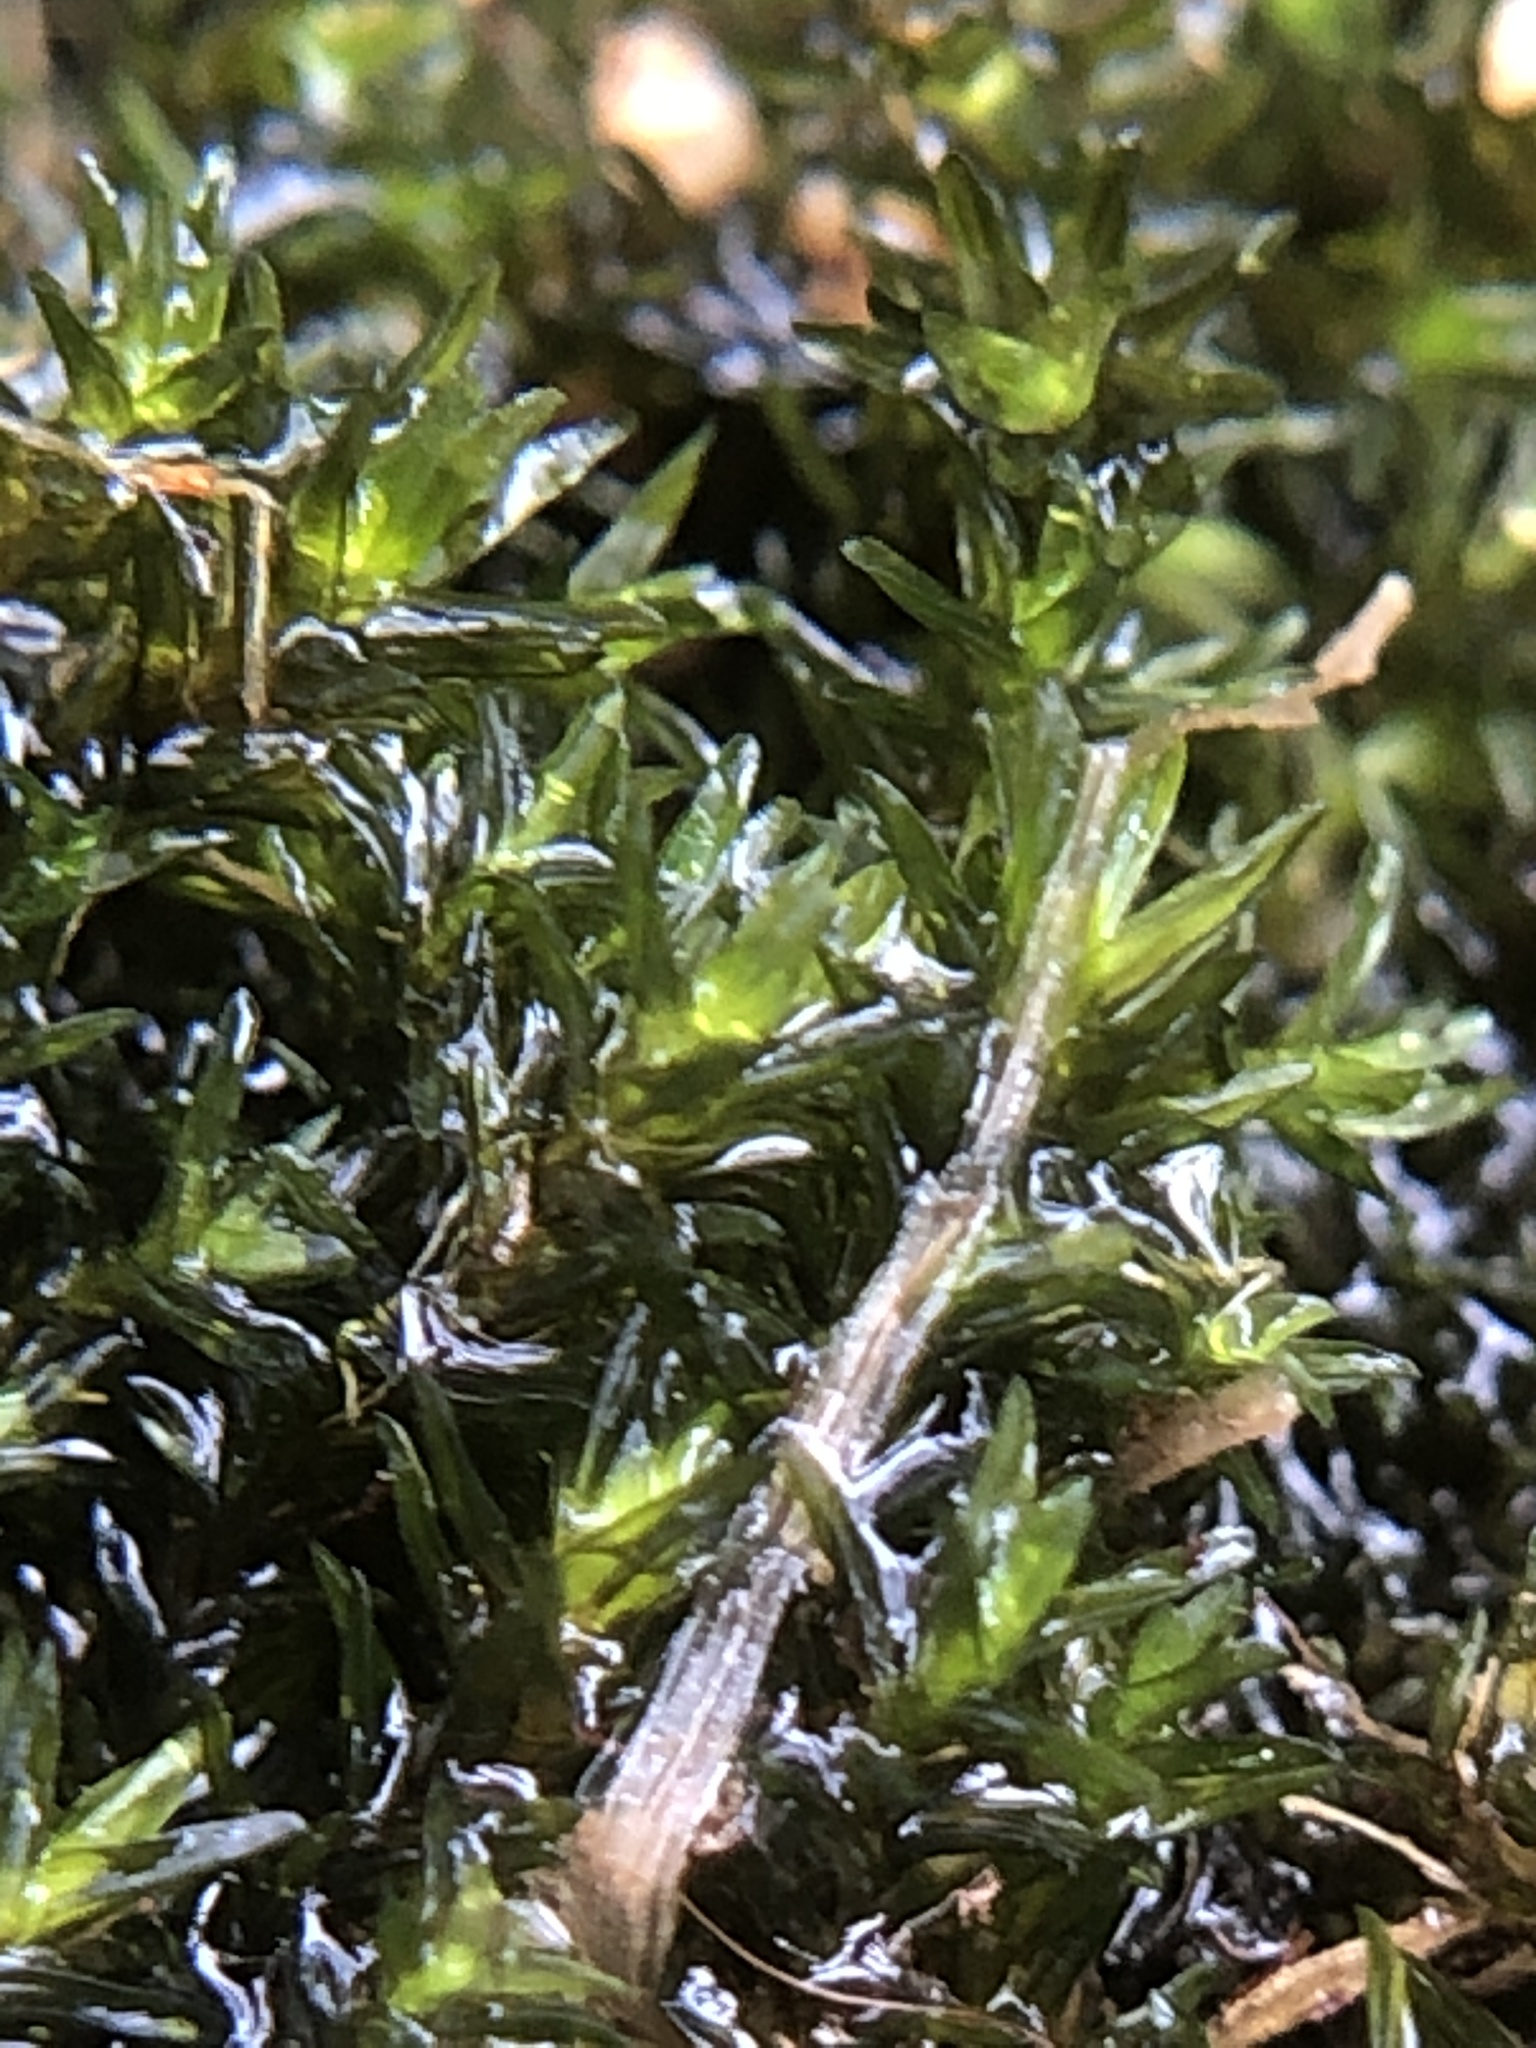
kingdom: Plantae
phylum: Bryophyta
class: Bryopsida
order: Grimmiales
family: Grimmiaceae
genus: Codriophorus
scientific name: Codriophorus acicularis
